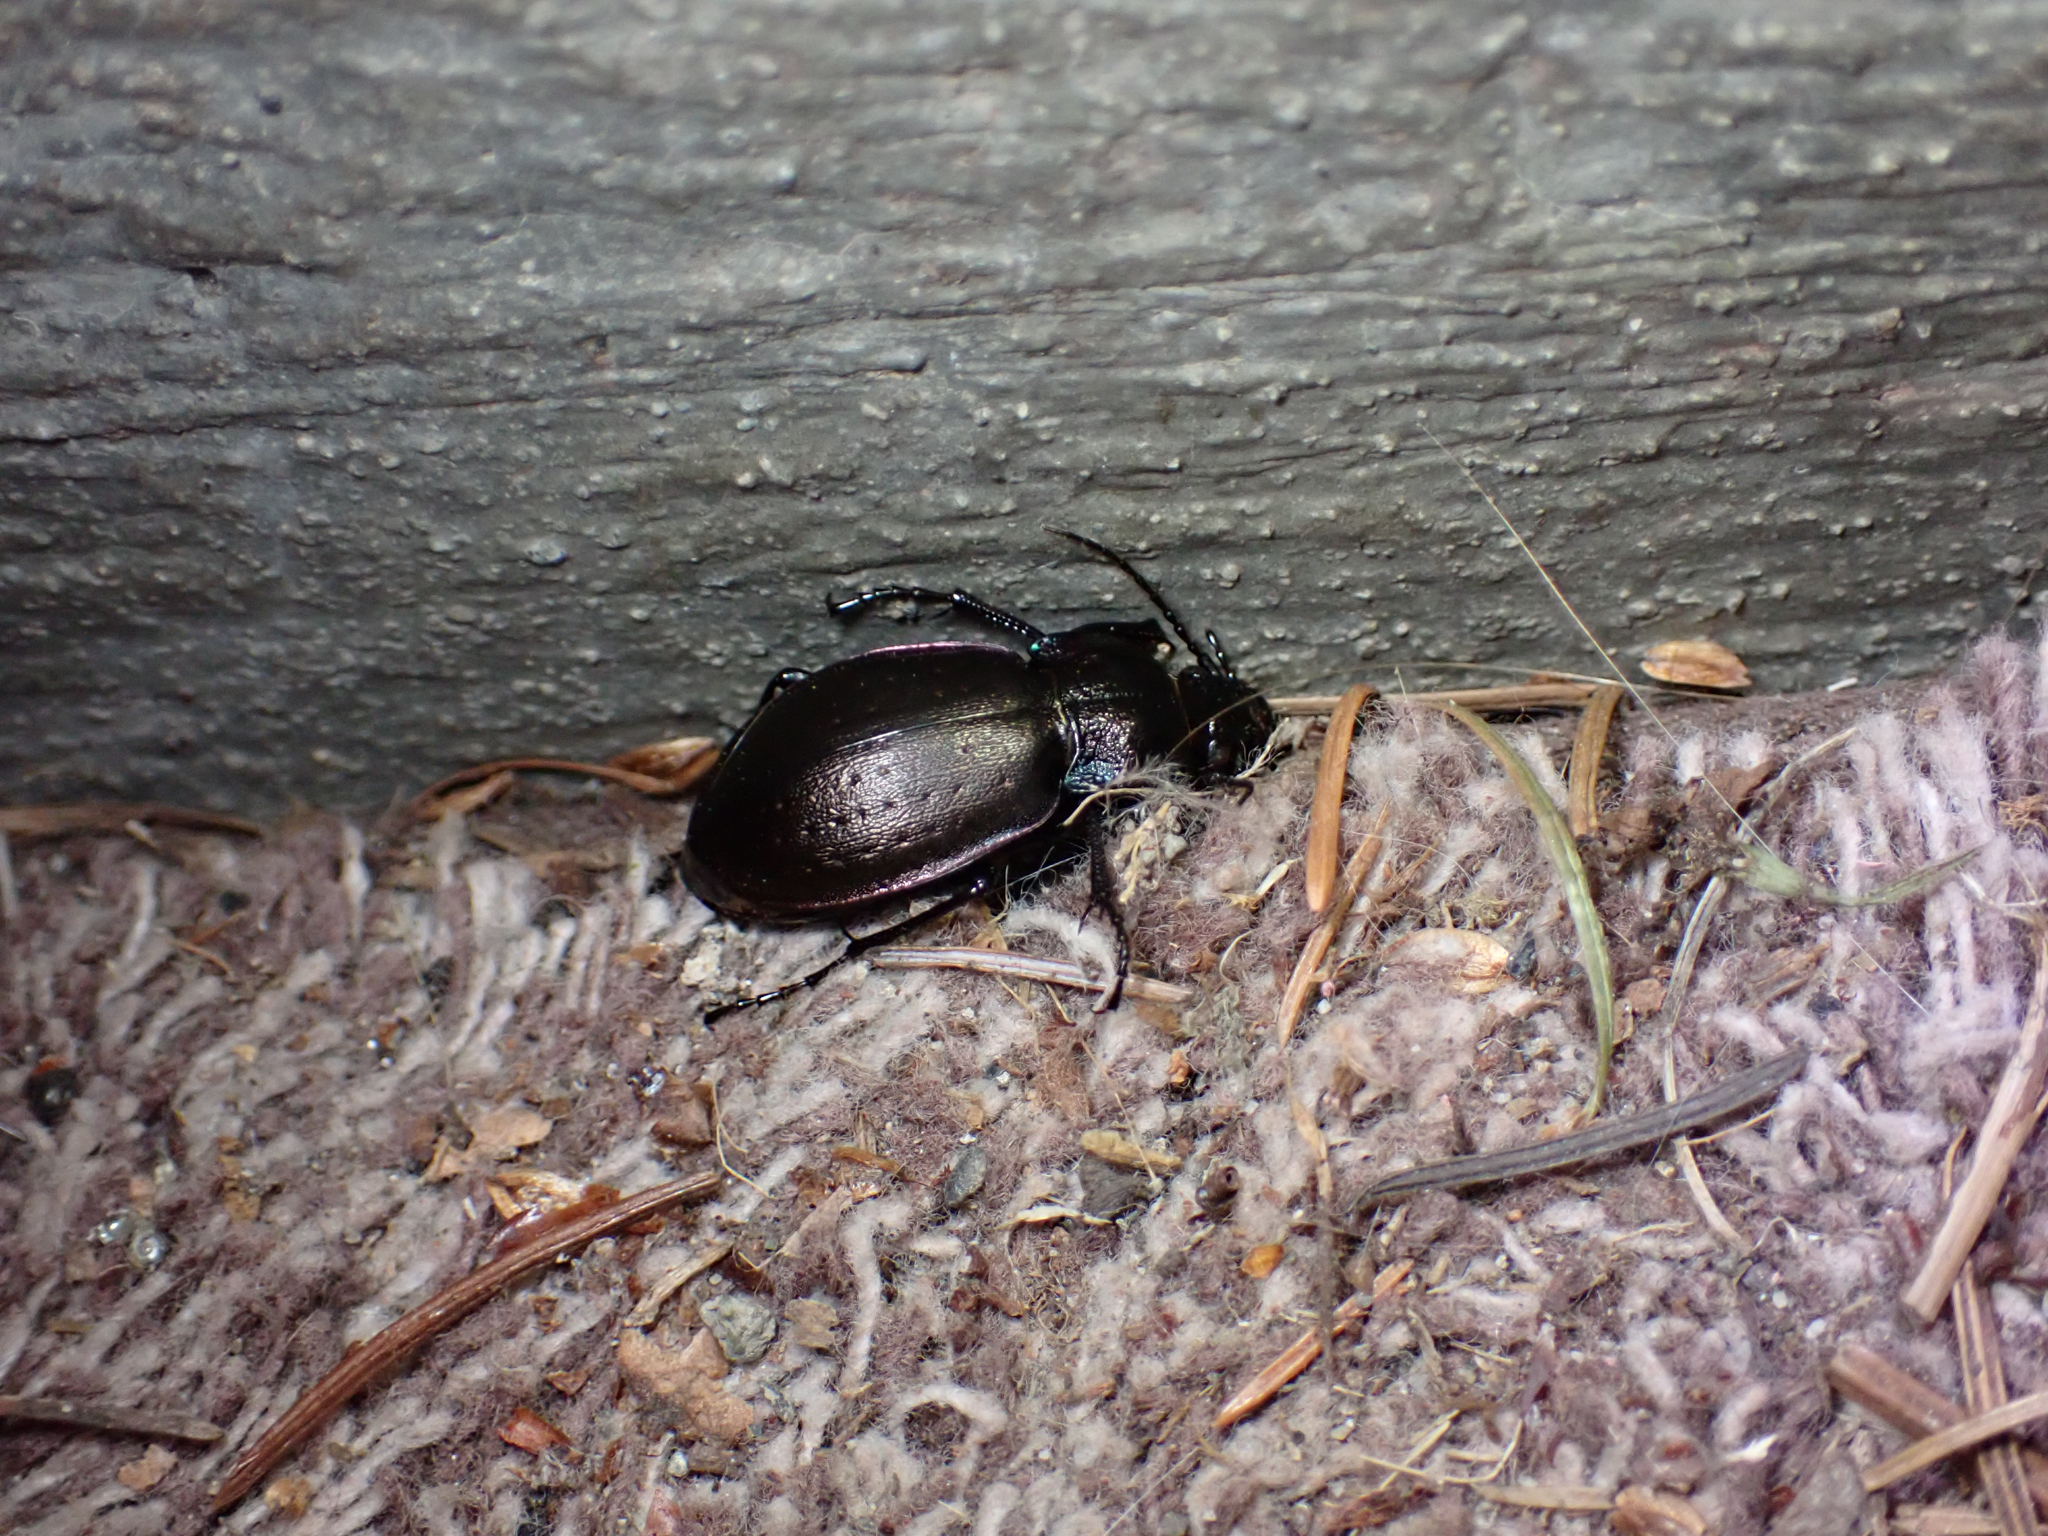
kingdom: Animalia
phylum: Arthropoda
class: Insecta
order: Coleoptera
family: Carabidae
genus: Carabus
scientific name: Carabus nemoralis
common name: European ground beetle
